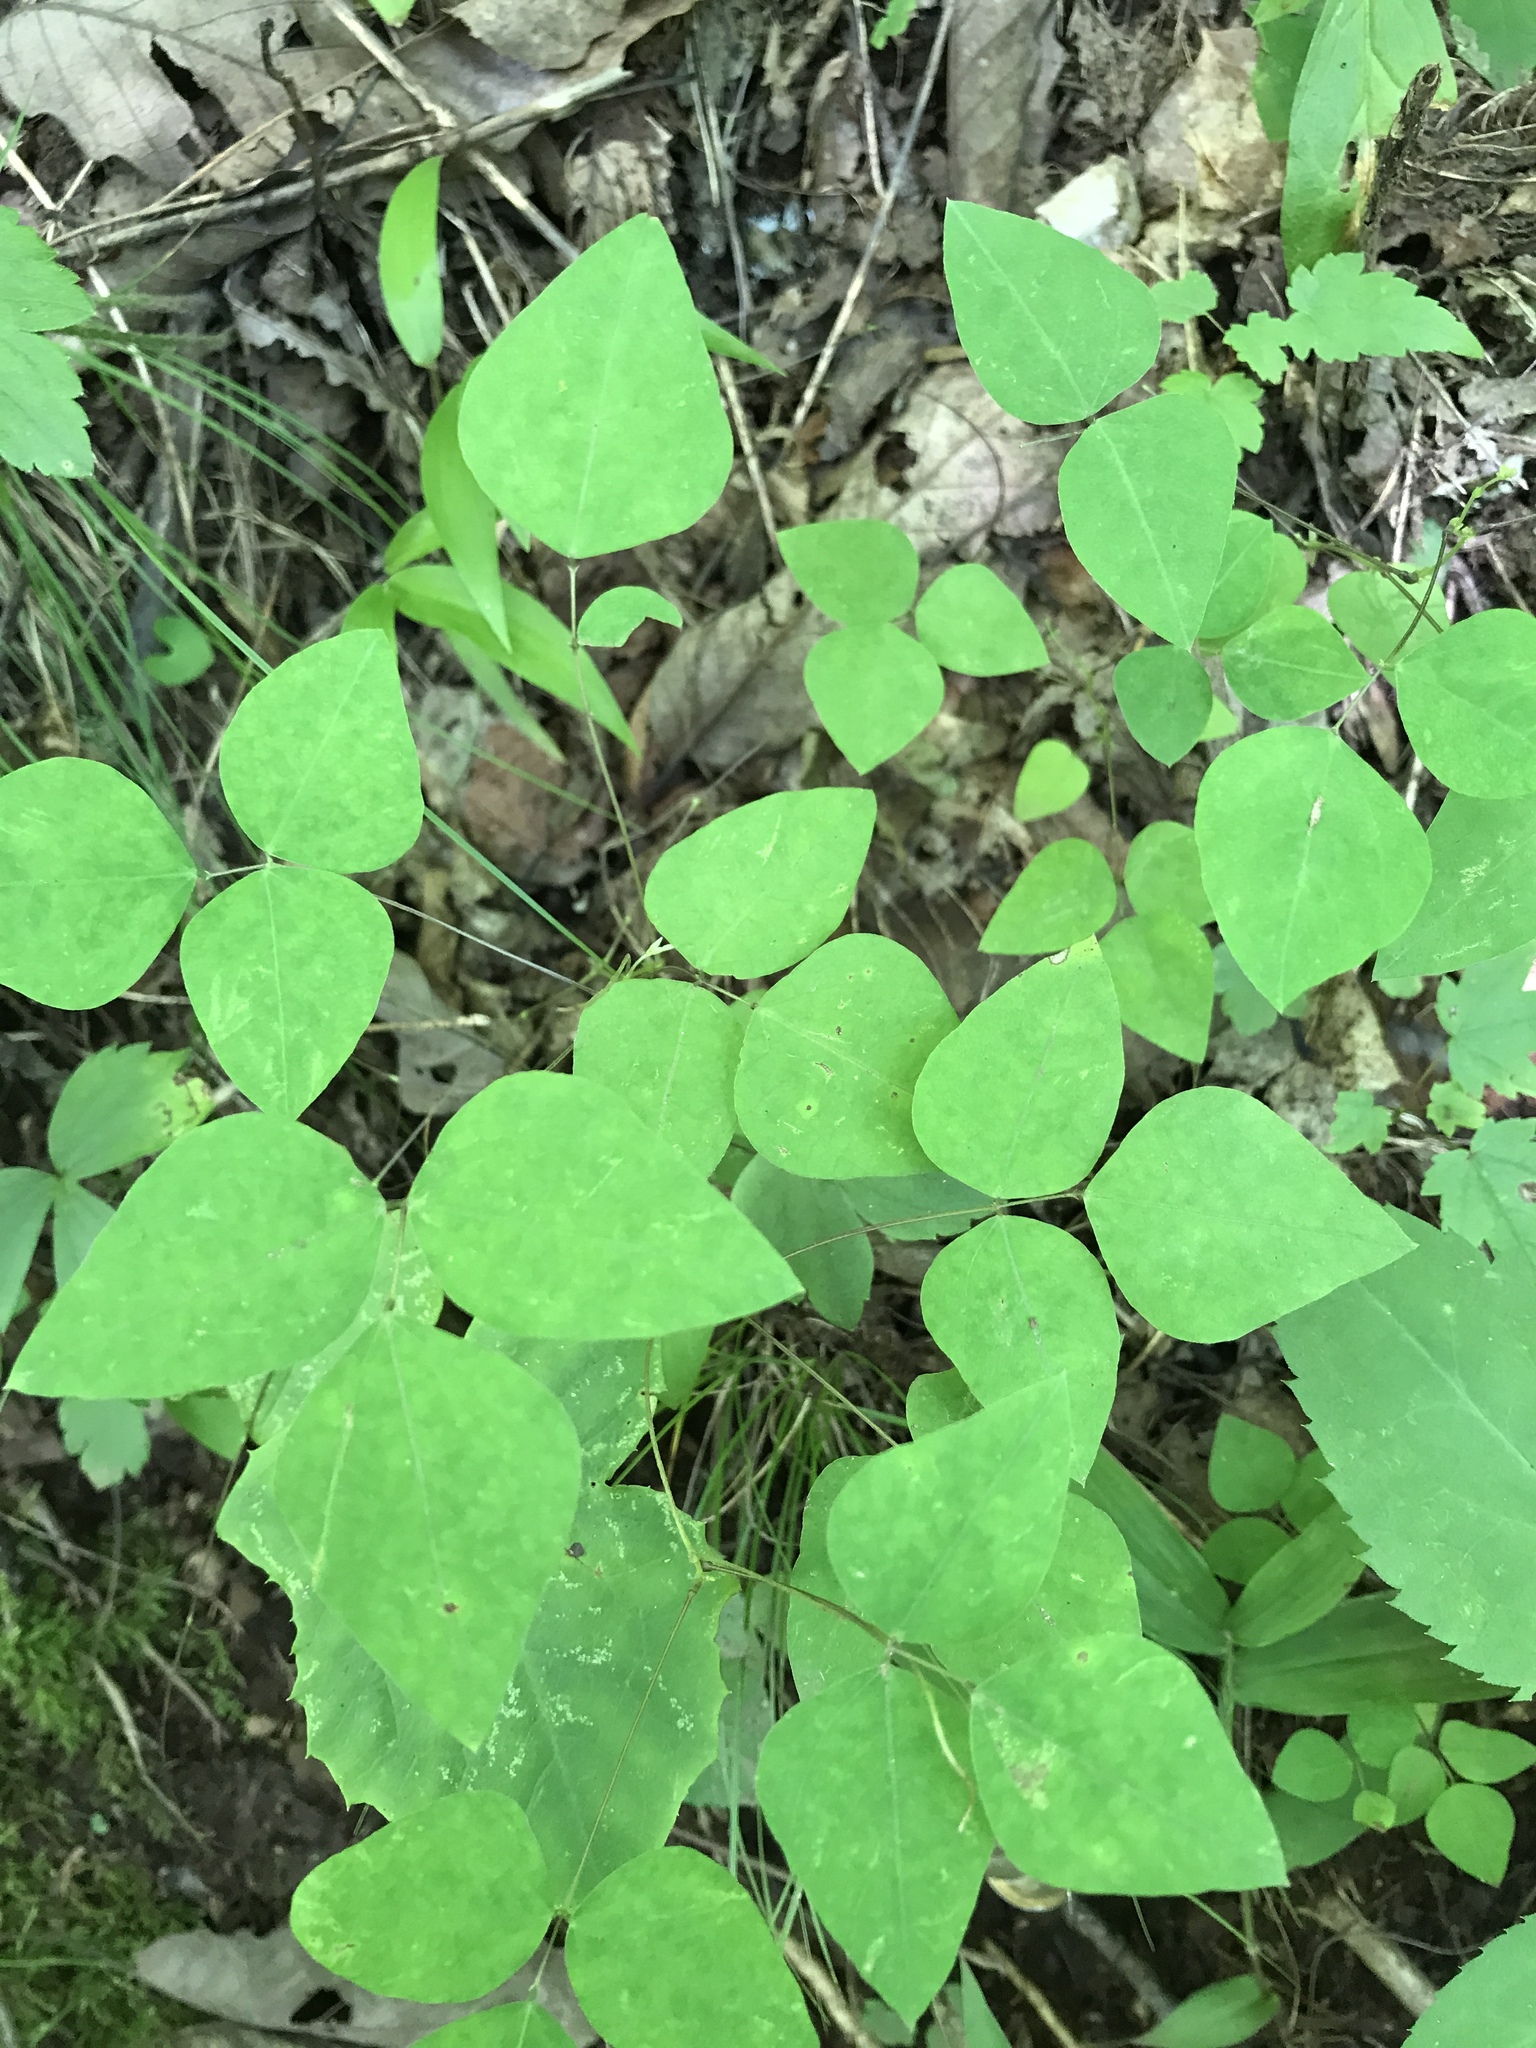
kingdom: Plantae
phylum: Tracheophyta
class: Magnoliopsida
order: Fabales
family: Fabaceae
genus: Amphicarpaea
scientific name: Amphicarpaea bracteata
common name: American hog peanut
